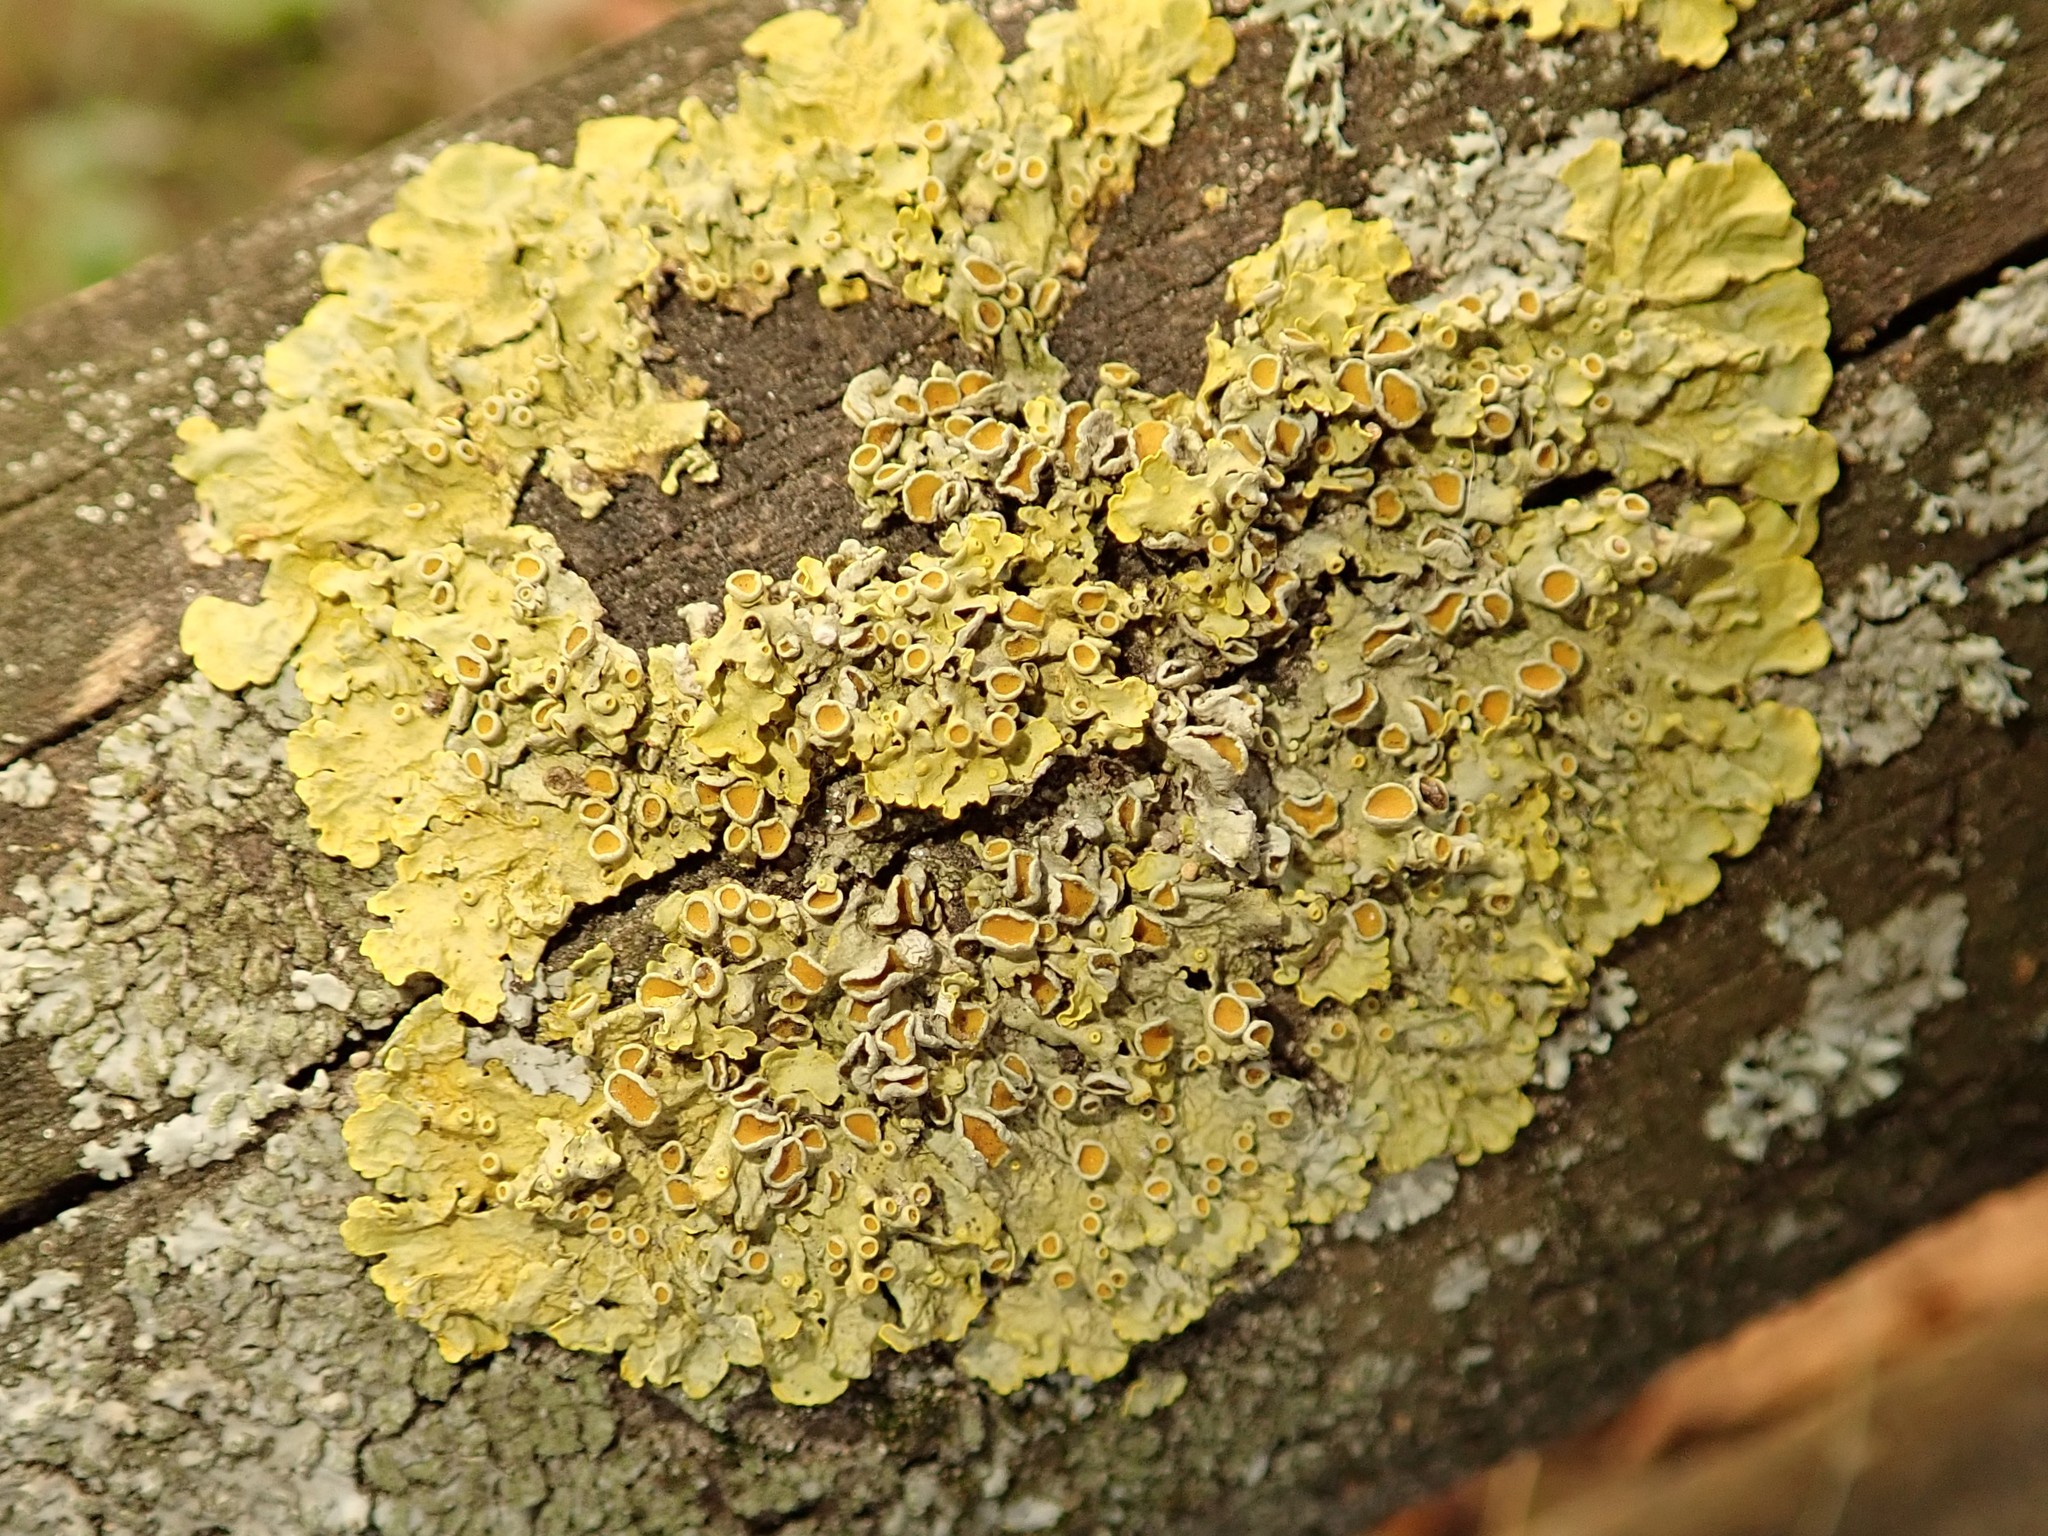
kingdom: Fungi
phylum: Ascomycota
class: Lecanoromycetes
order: Teloschistales
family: Teloschistaceae
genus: Xanthoria
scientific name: Xanthoria parietina
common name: Common orange lichen
